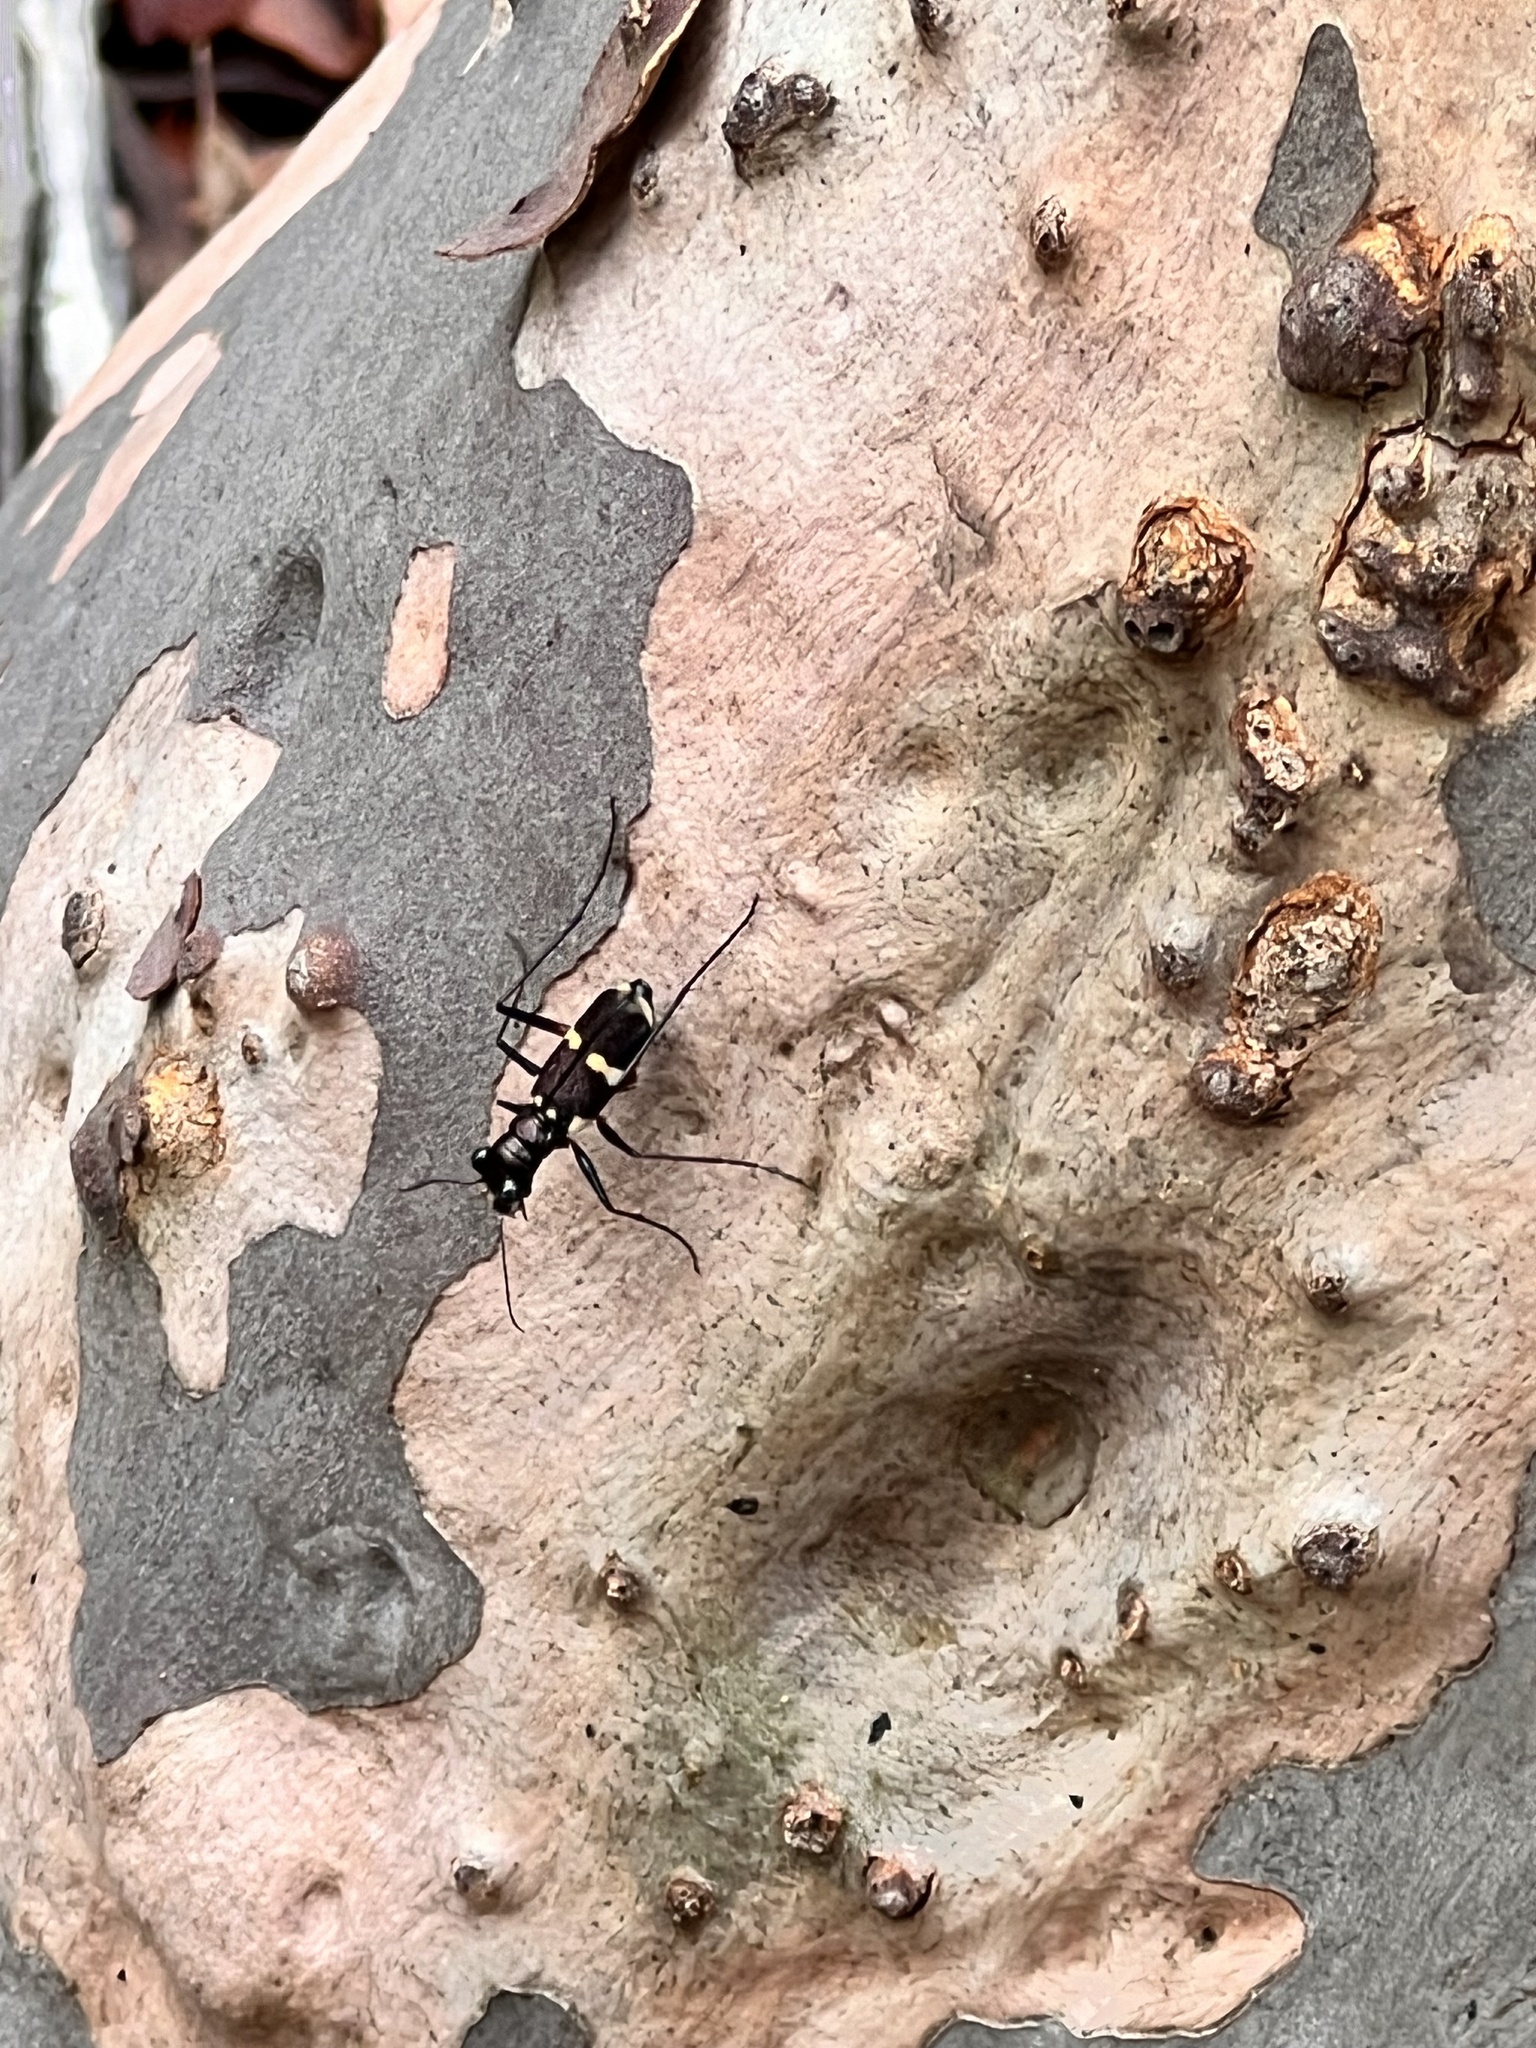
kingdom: Animalia
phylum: Arthropoda
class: Insecta
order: Coleoptera
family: Carabidae
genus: Distipsidera
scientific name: Distipsidera flavipes
